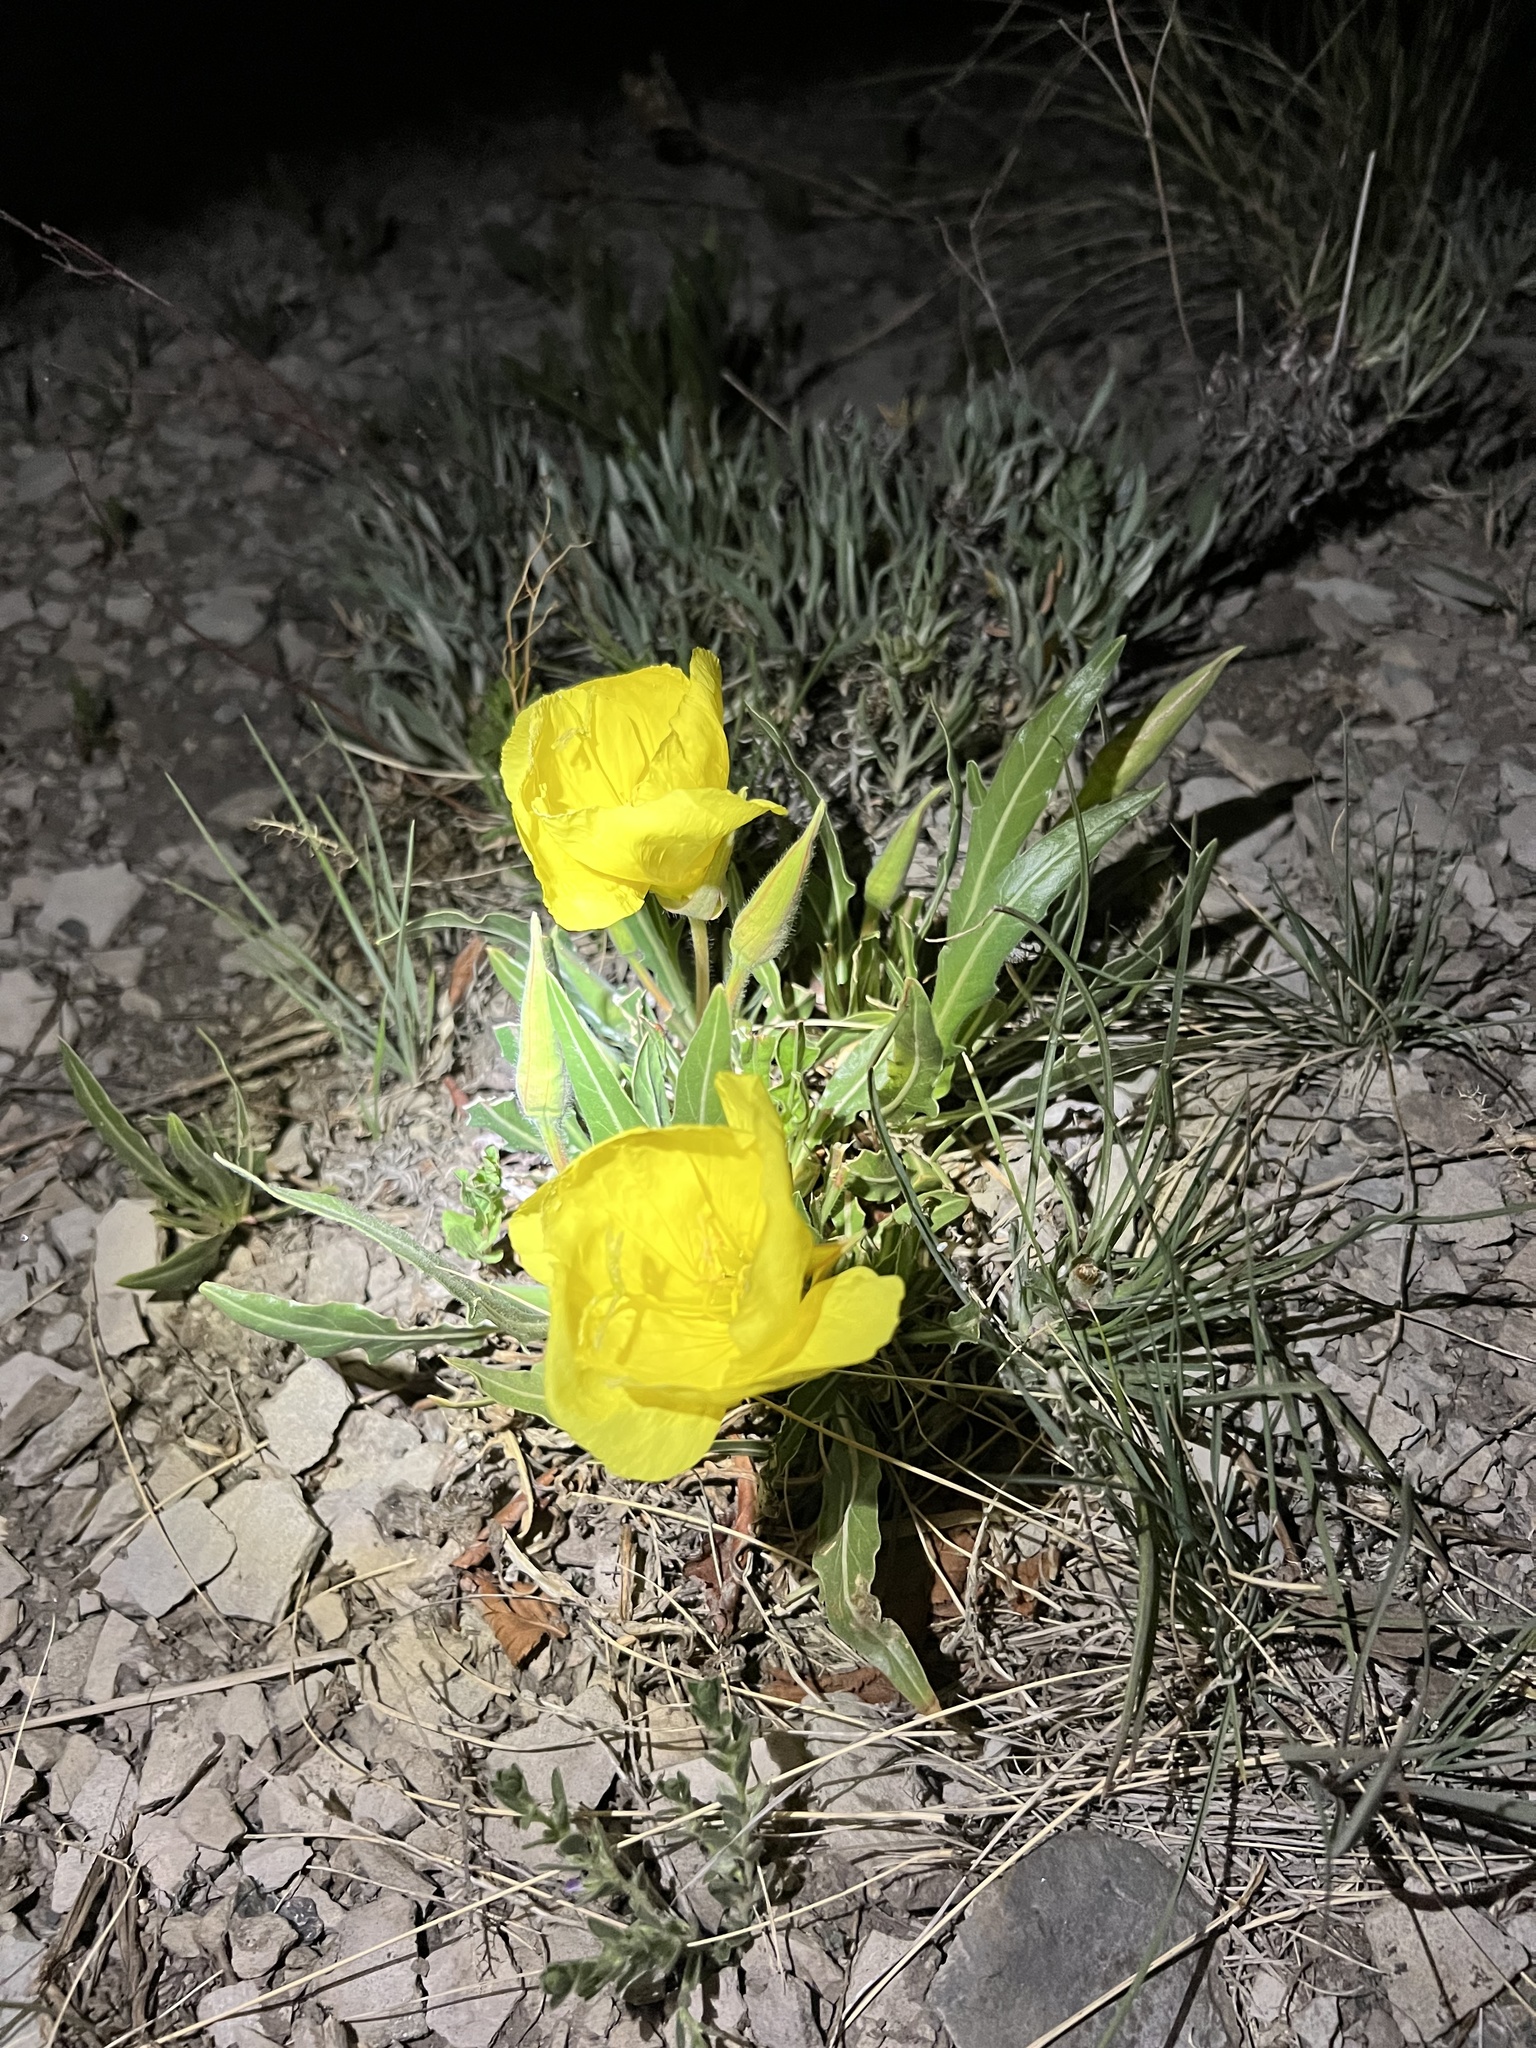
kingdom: Plantae
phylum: Tracheophyta
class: Magnoliopsida
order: Myrtales
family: Onagraceae
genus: Oenothera
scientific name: Oenothera howardii
